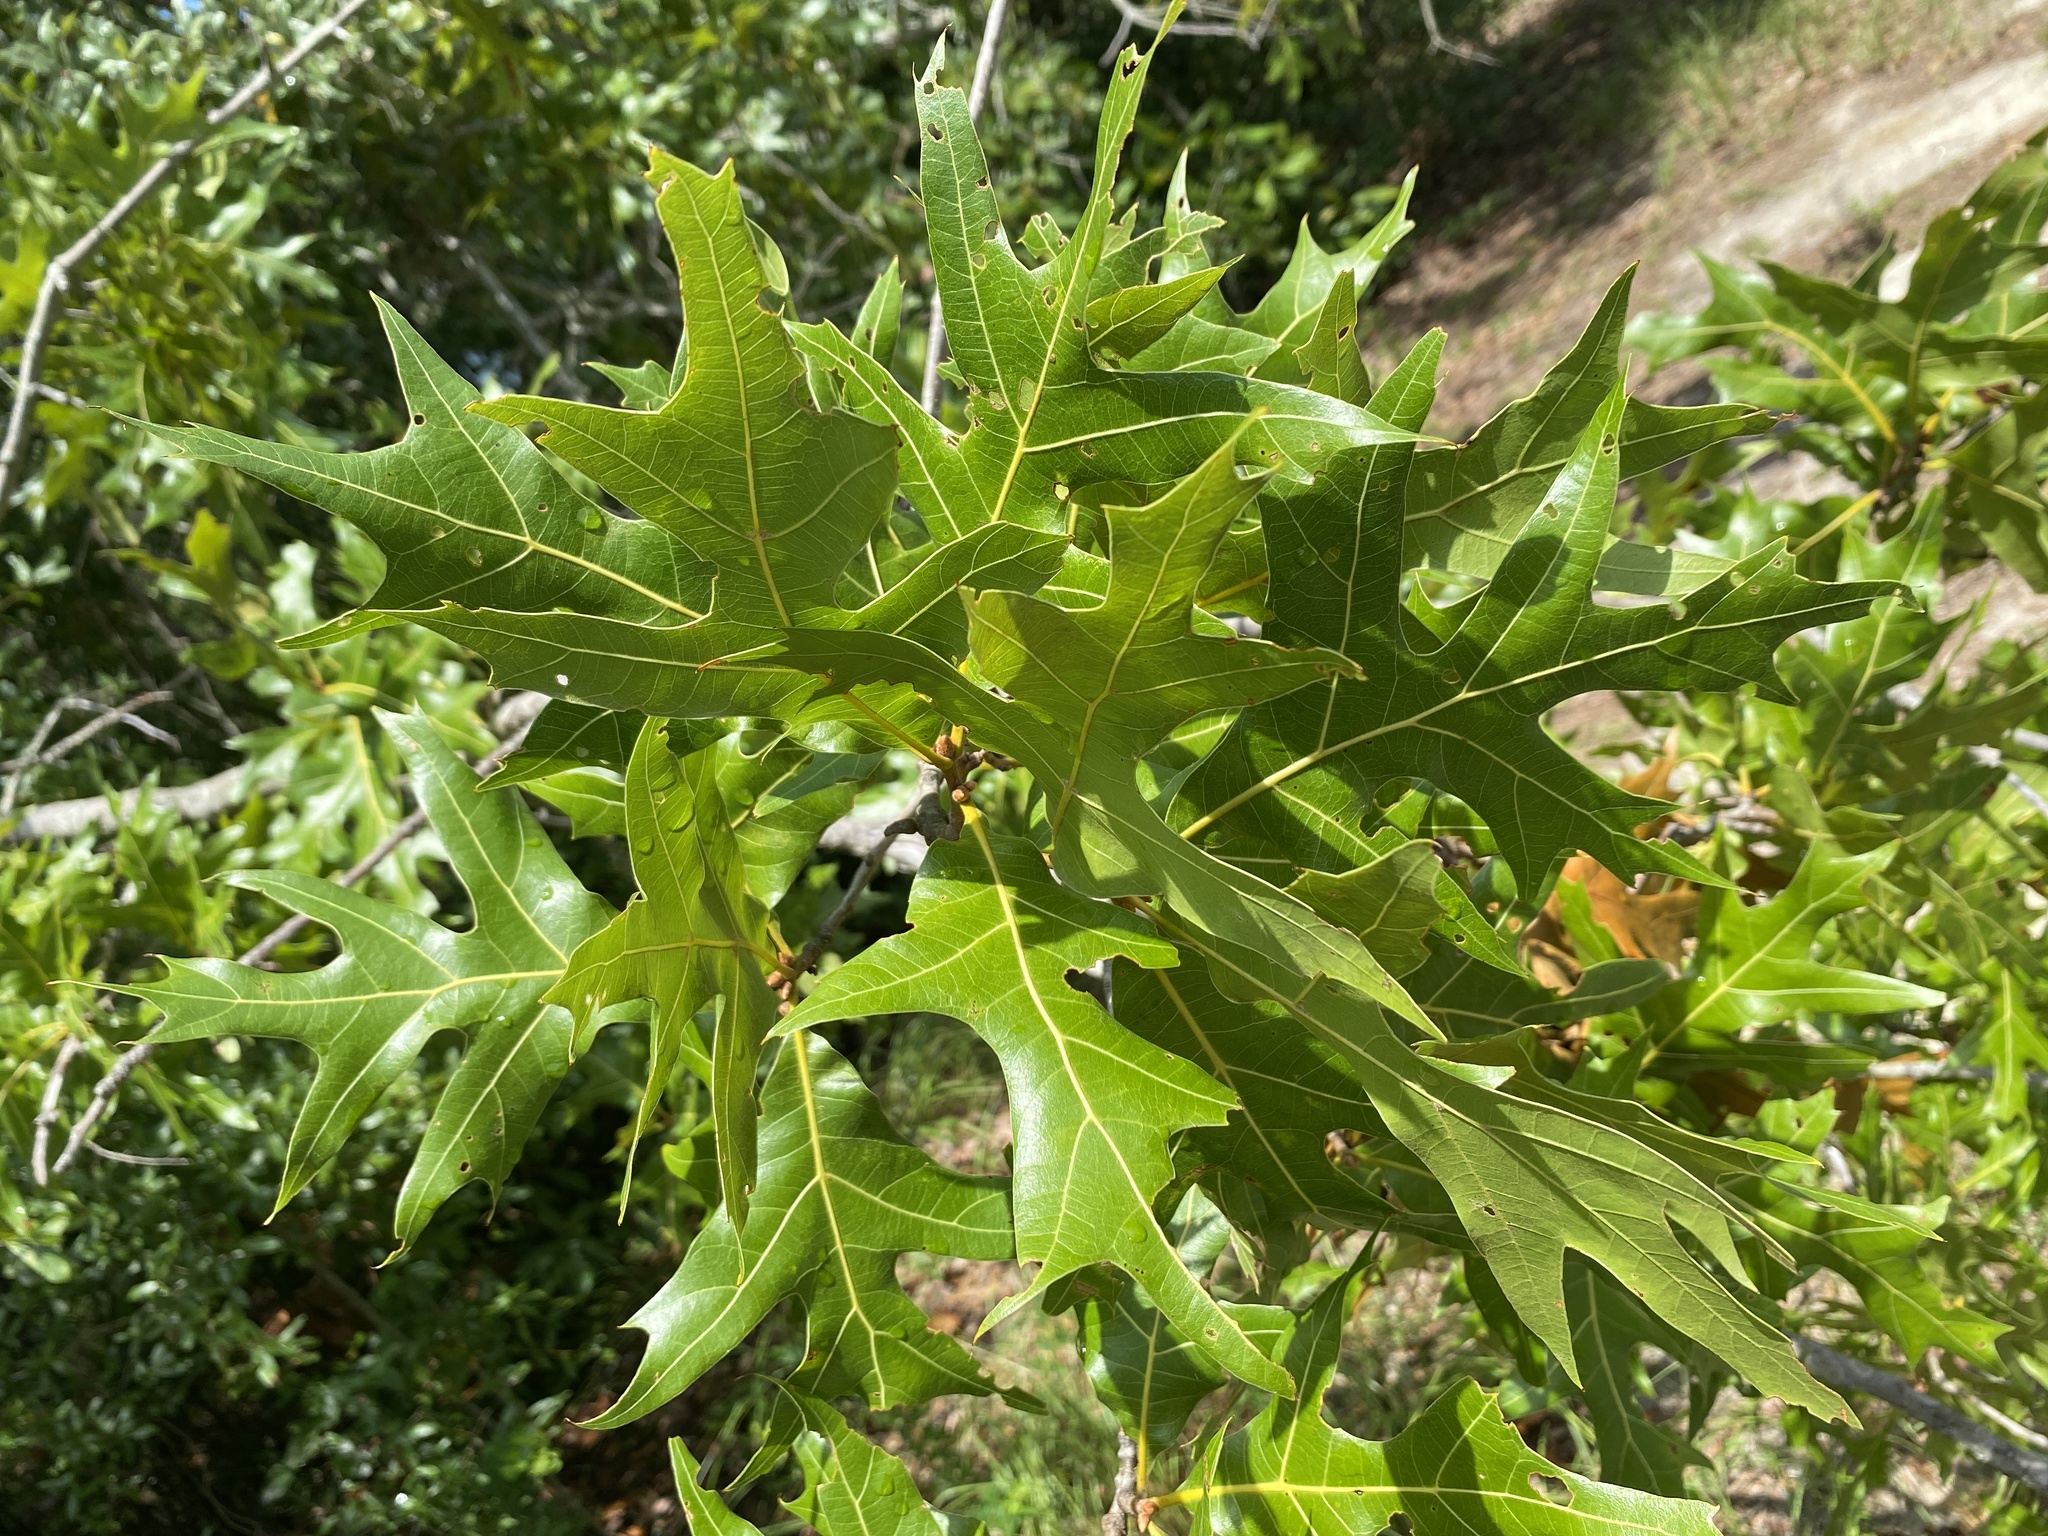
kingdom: Plantae
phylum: Tracheophyta
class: Magnoliopsida
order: Fagales
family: Fagaceae
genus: Quercus
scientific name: Quercus laevis
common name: Turkey oak
